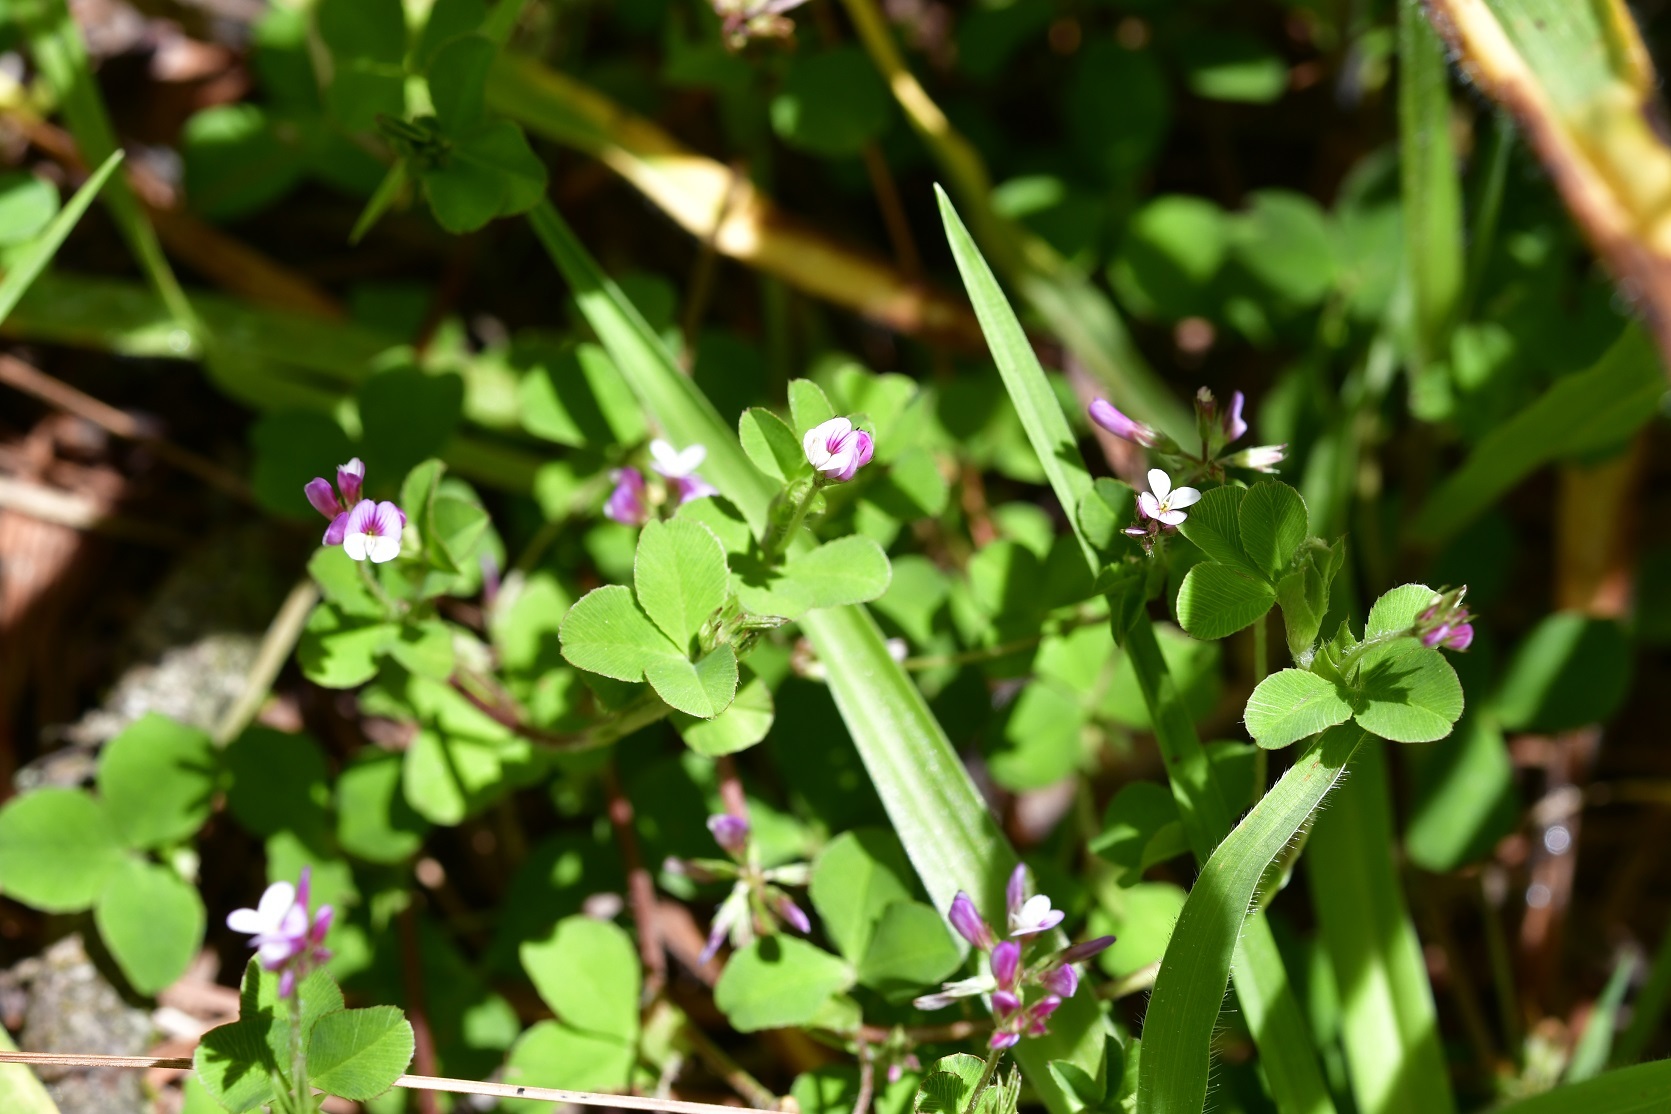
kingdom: Plantae
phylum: Tracheophyta
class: Magnoliopsida
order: Fabales
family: Fabaceae
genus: Trifolium
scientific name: Trifolium amabile
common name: Aztec clover
